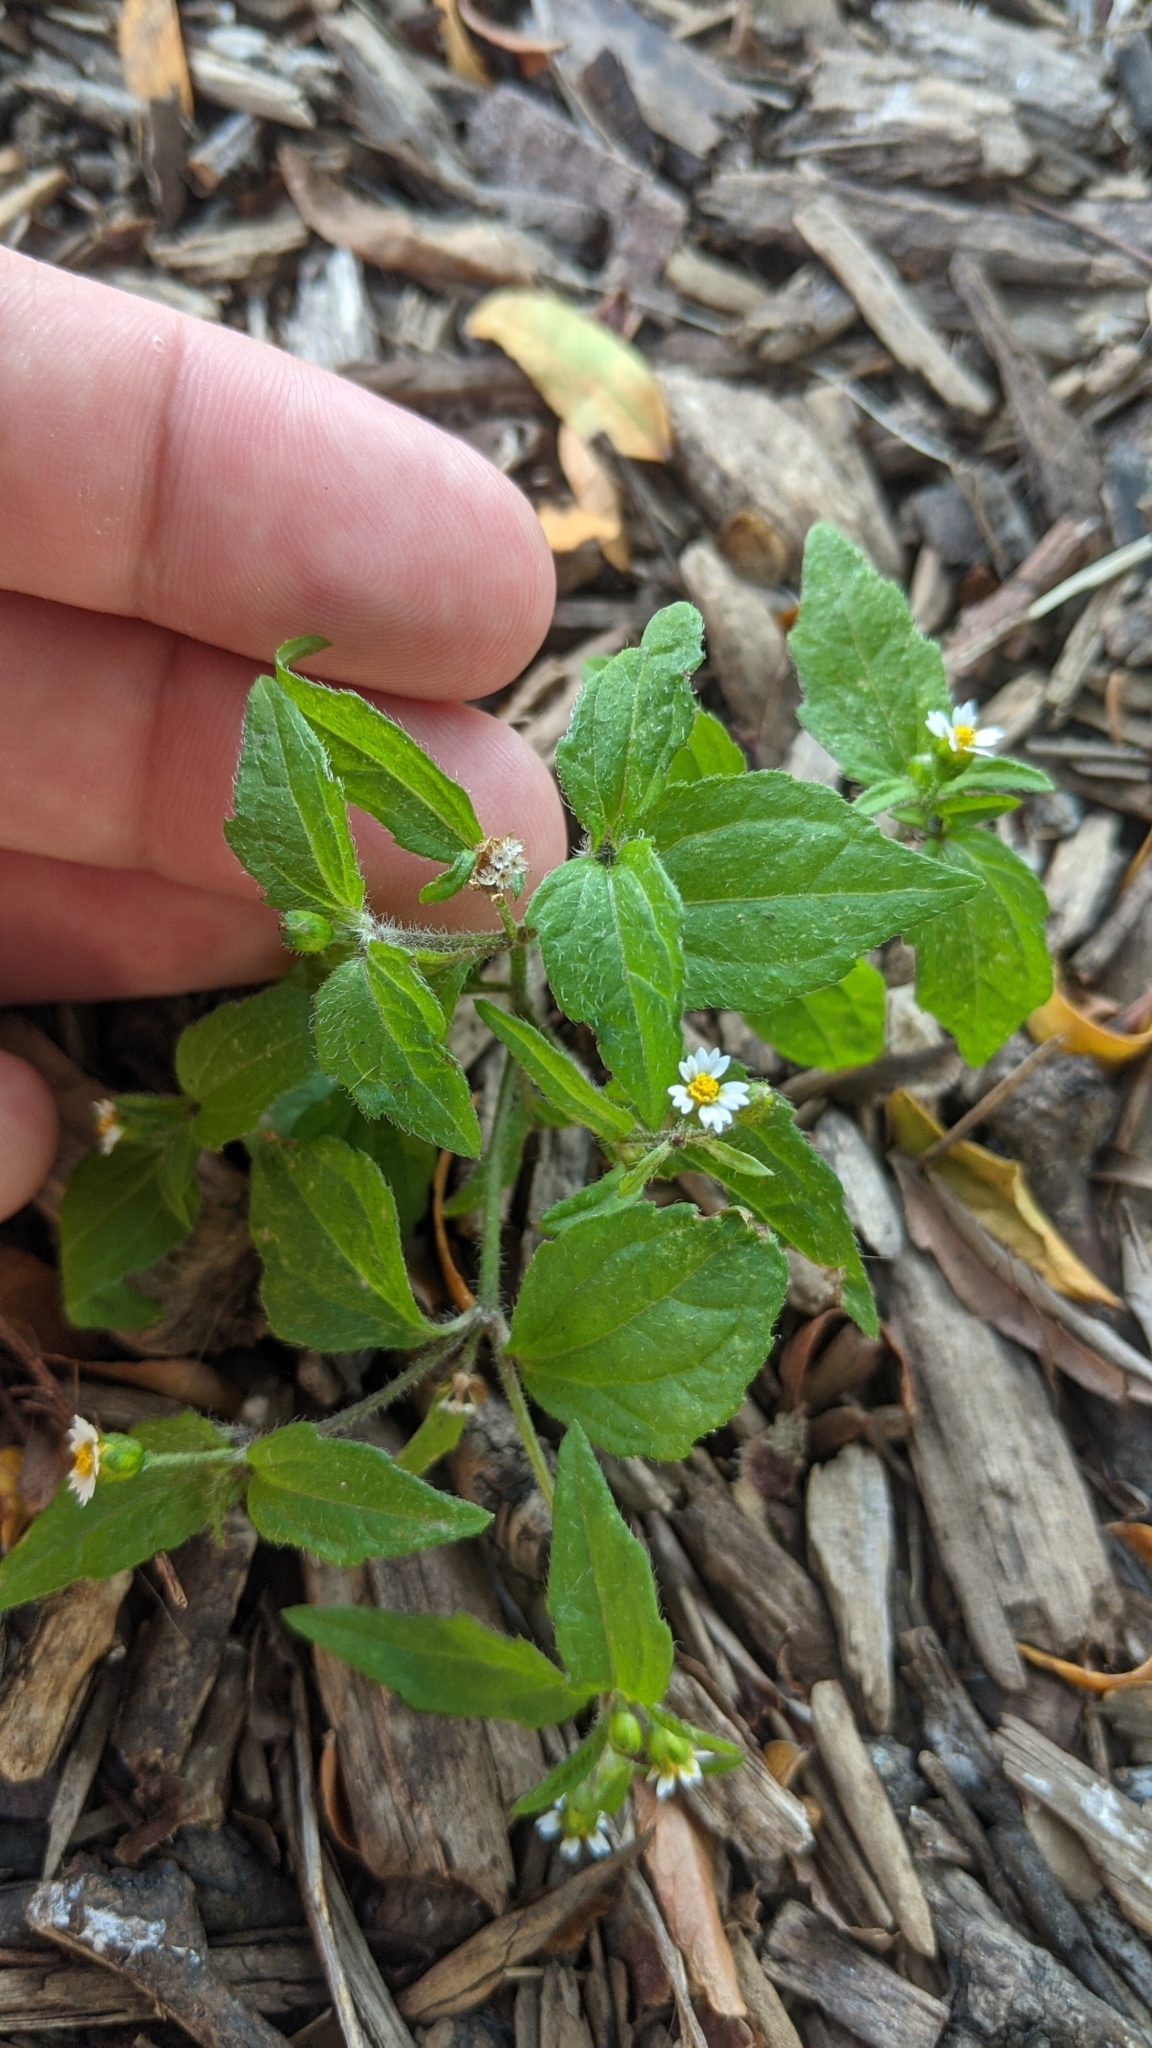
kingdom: Plantae
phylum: Tracheophyta
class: Magnoliopsida
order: Asterales
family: Asteraceae
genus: Galinsoga
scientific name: Galinsoga quadriradiata
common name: Shaggy soldier
